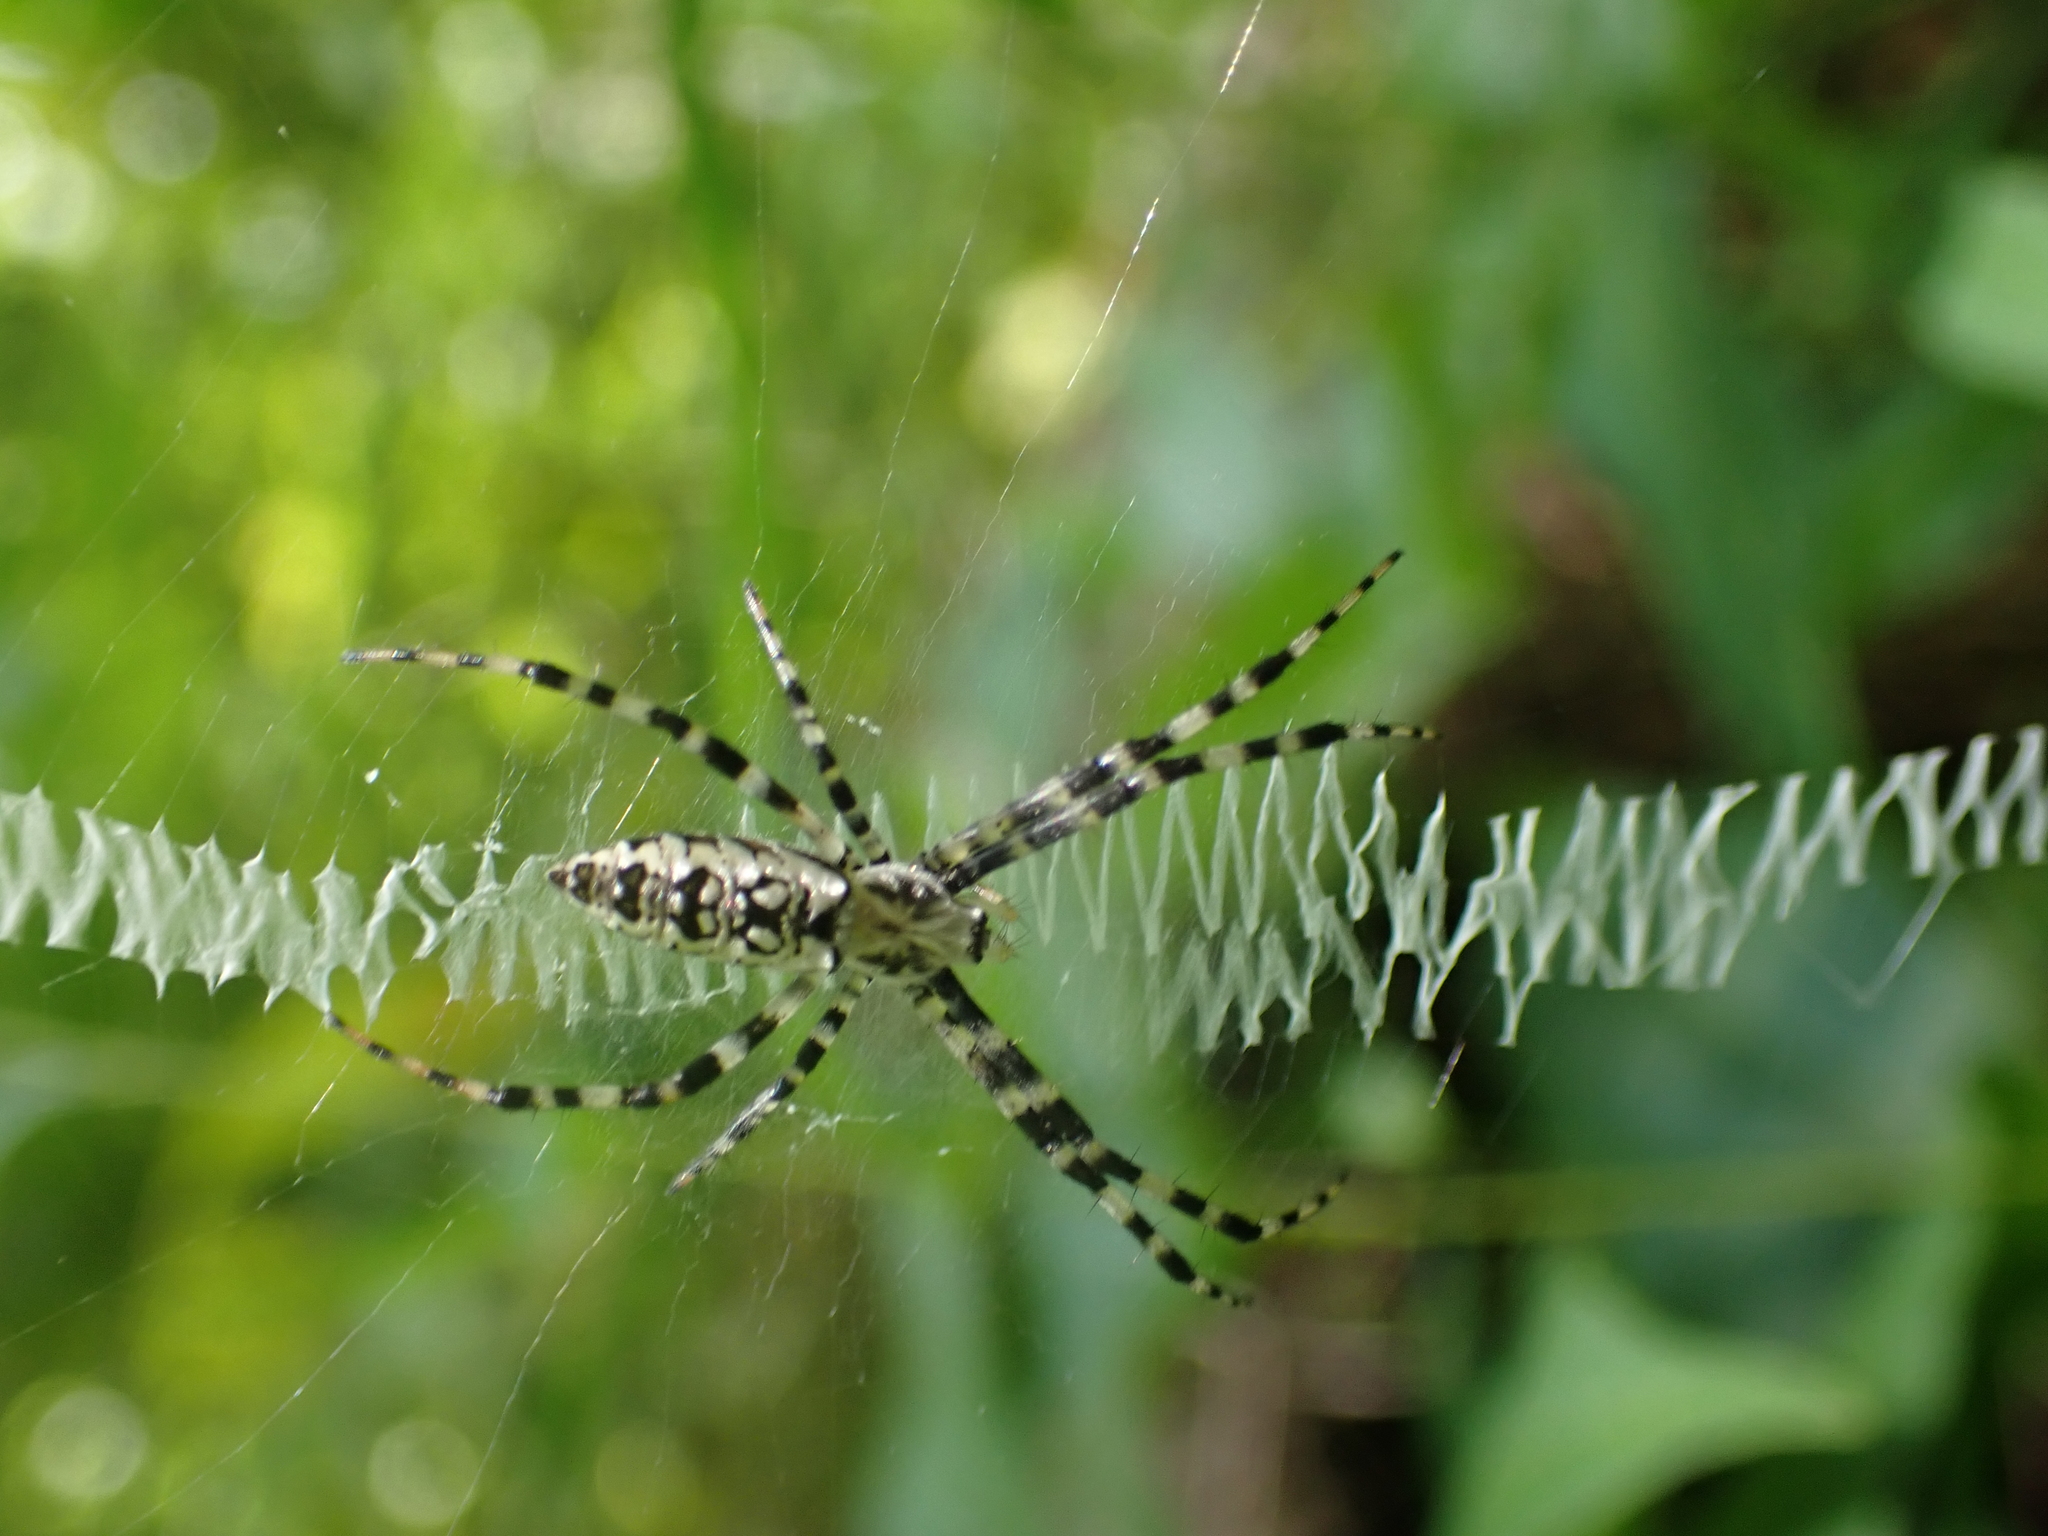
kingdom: Animalia
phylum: Arthropoda
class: Arachnida
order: Araneae
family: Araneidae
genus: Argiope
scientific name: Argiope aurantia
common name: Orb weavers
